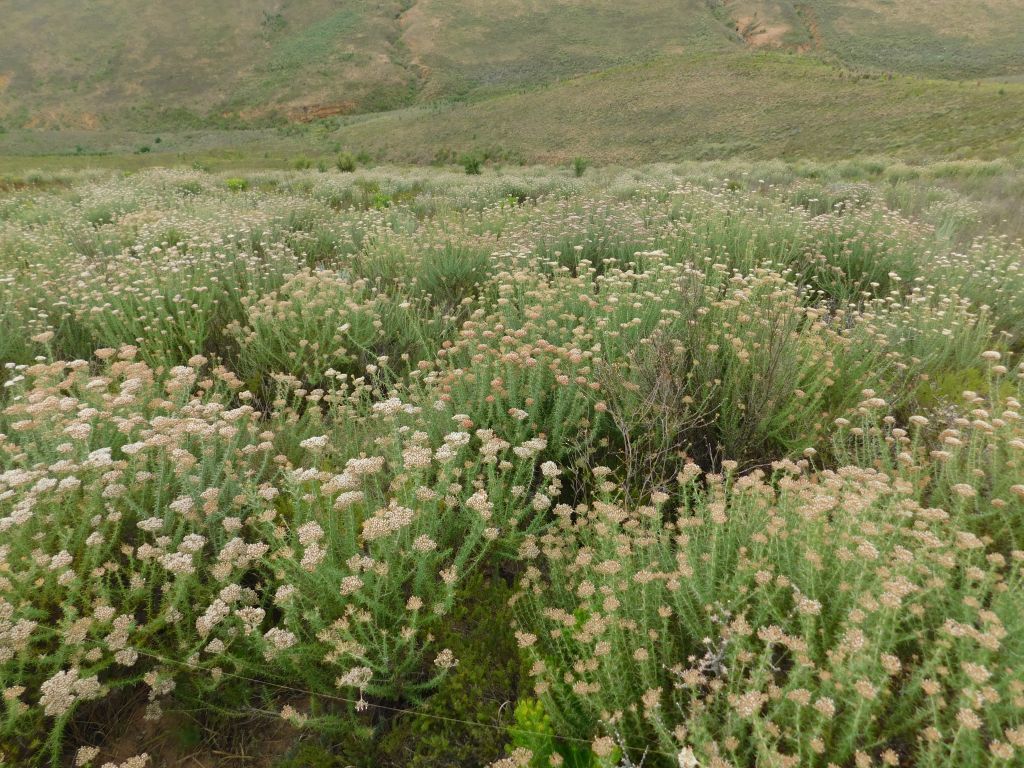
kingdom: Plantae
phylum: Tracheophyta
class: Magnoliopsida
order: Asterales
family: Asteraceae
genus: Metalasia
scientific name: Metalasia acuta
